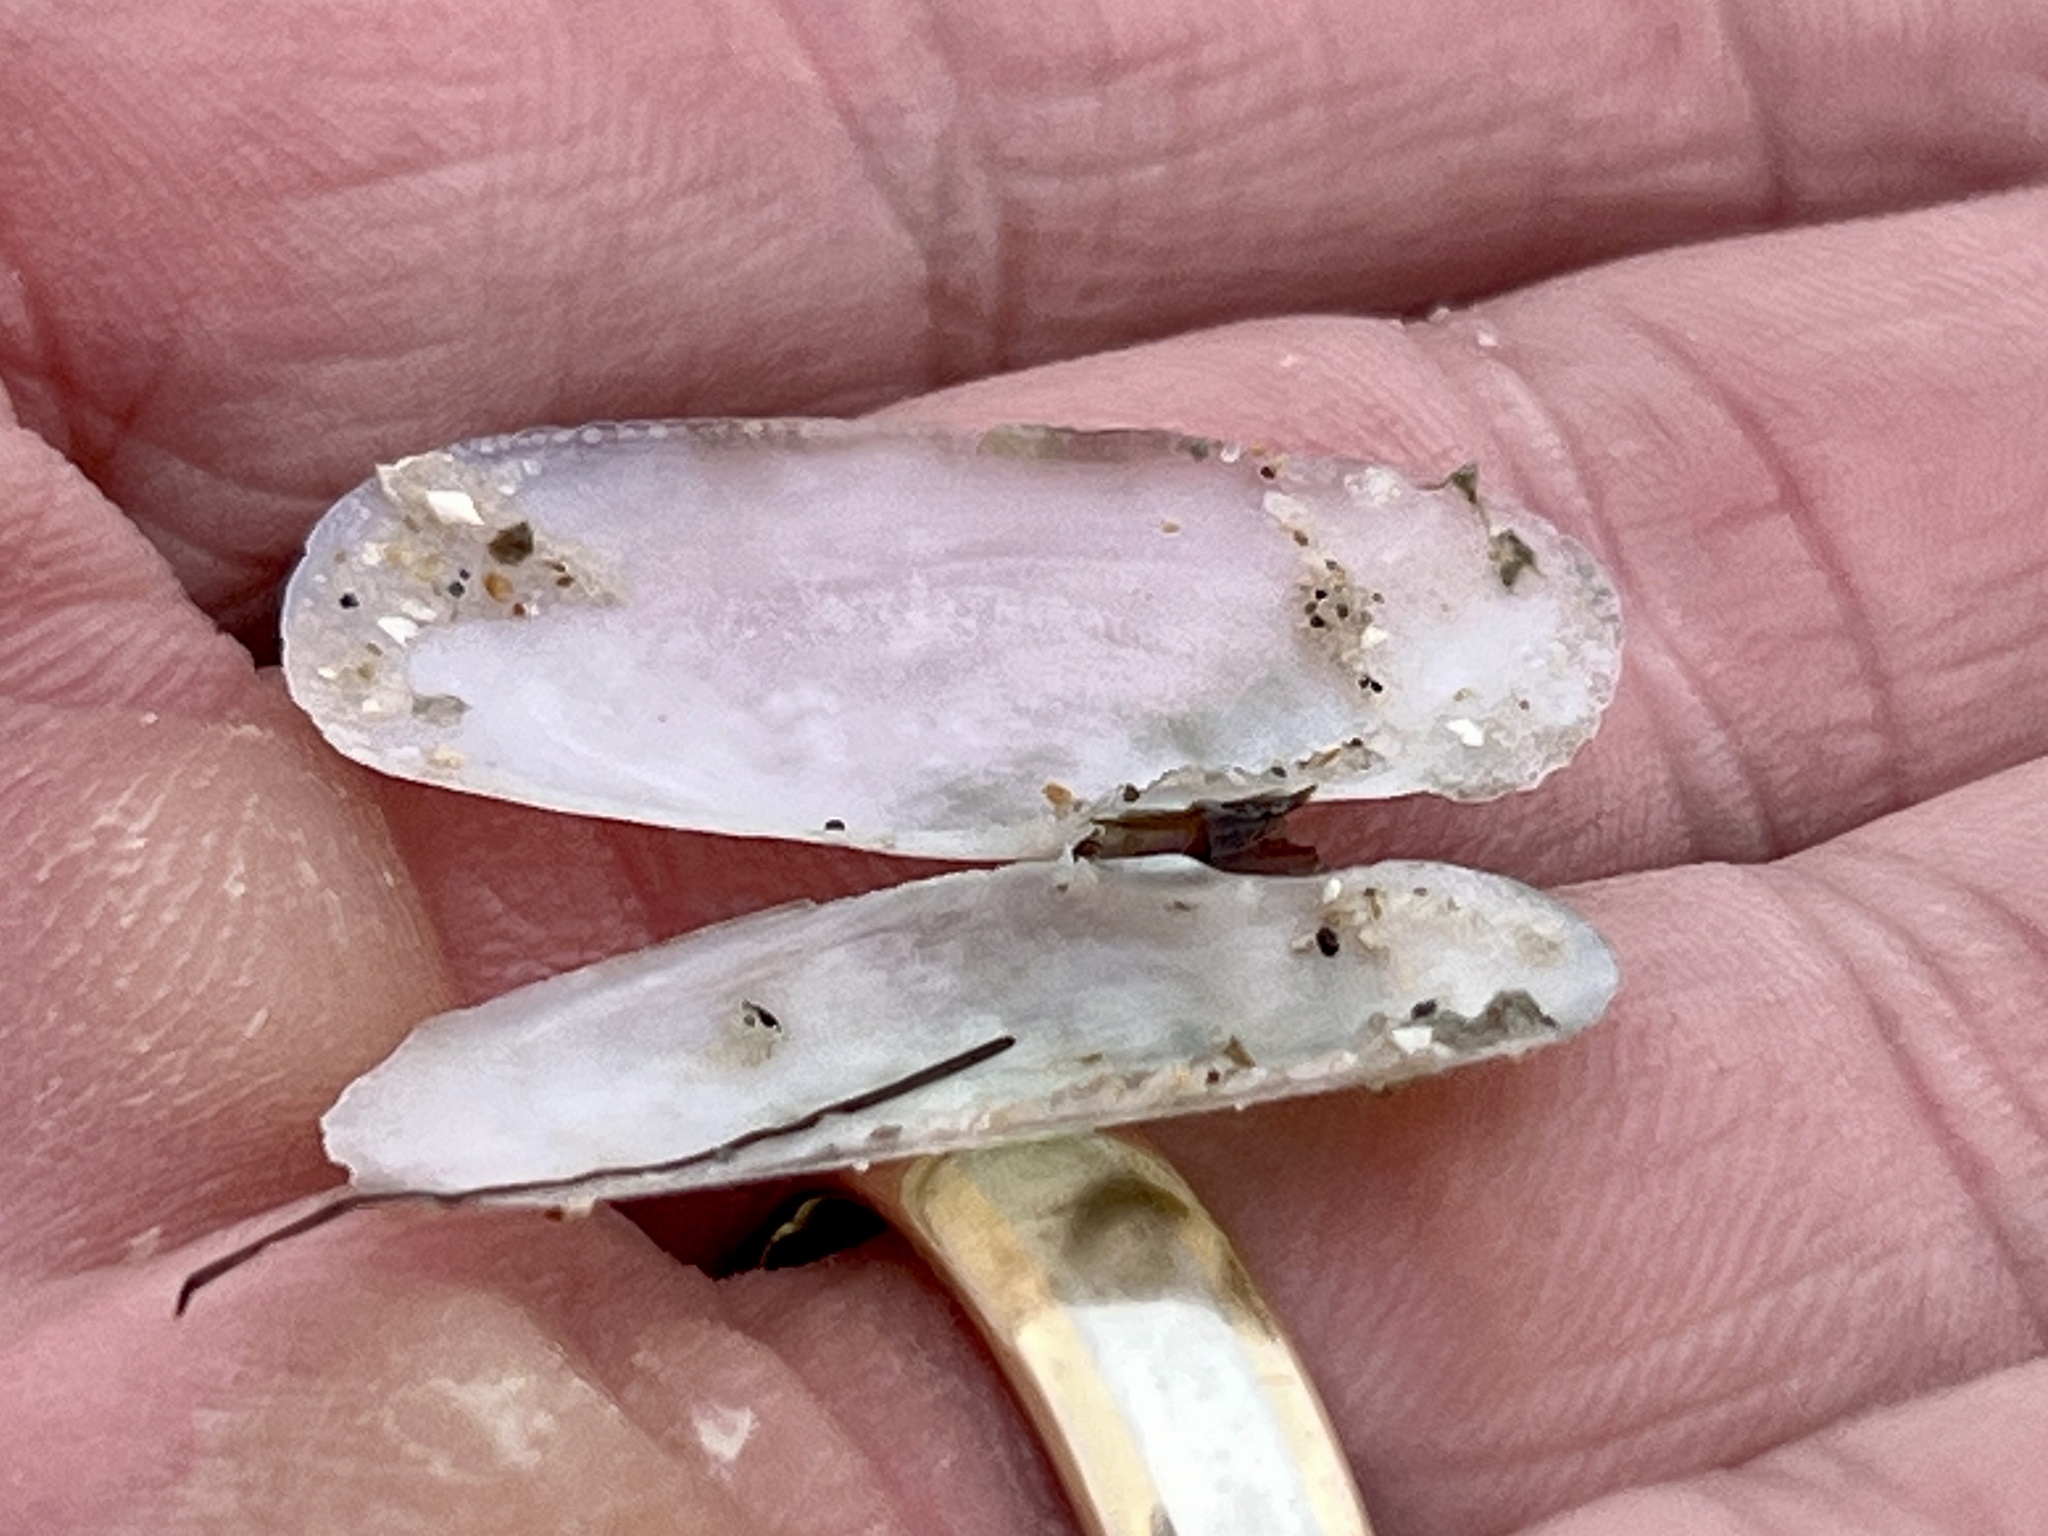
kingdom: Animalia
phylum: Mollusca
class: Bivalvia
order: Cardiida
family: Solecurtidae
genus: Tagelus
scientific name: Tagelus plebeius
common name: Stout tagelus
